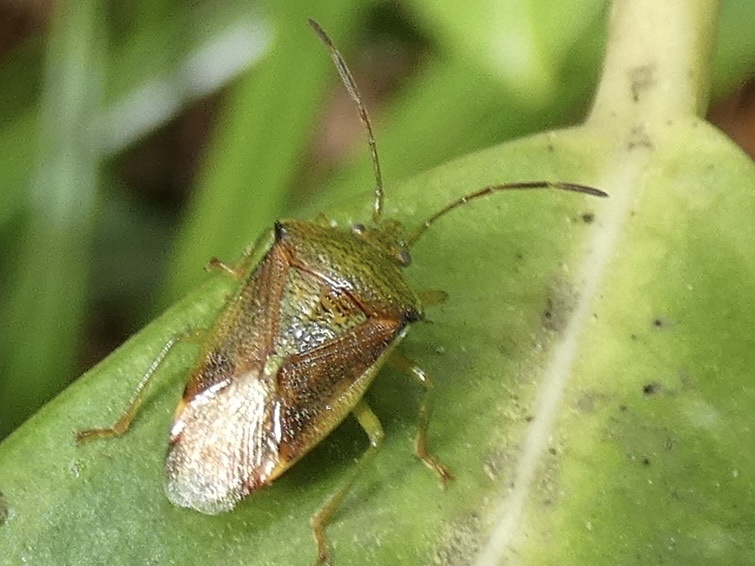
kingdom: Animalia
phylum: Arthropoda
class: Insecta
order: Hemiptera
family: Acanthosomatidae
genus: Elasmostethus
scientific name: Elasmostethus interstinctus
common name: Birch shieldbug
